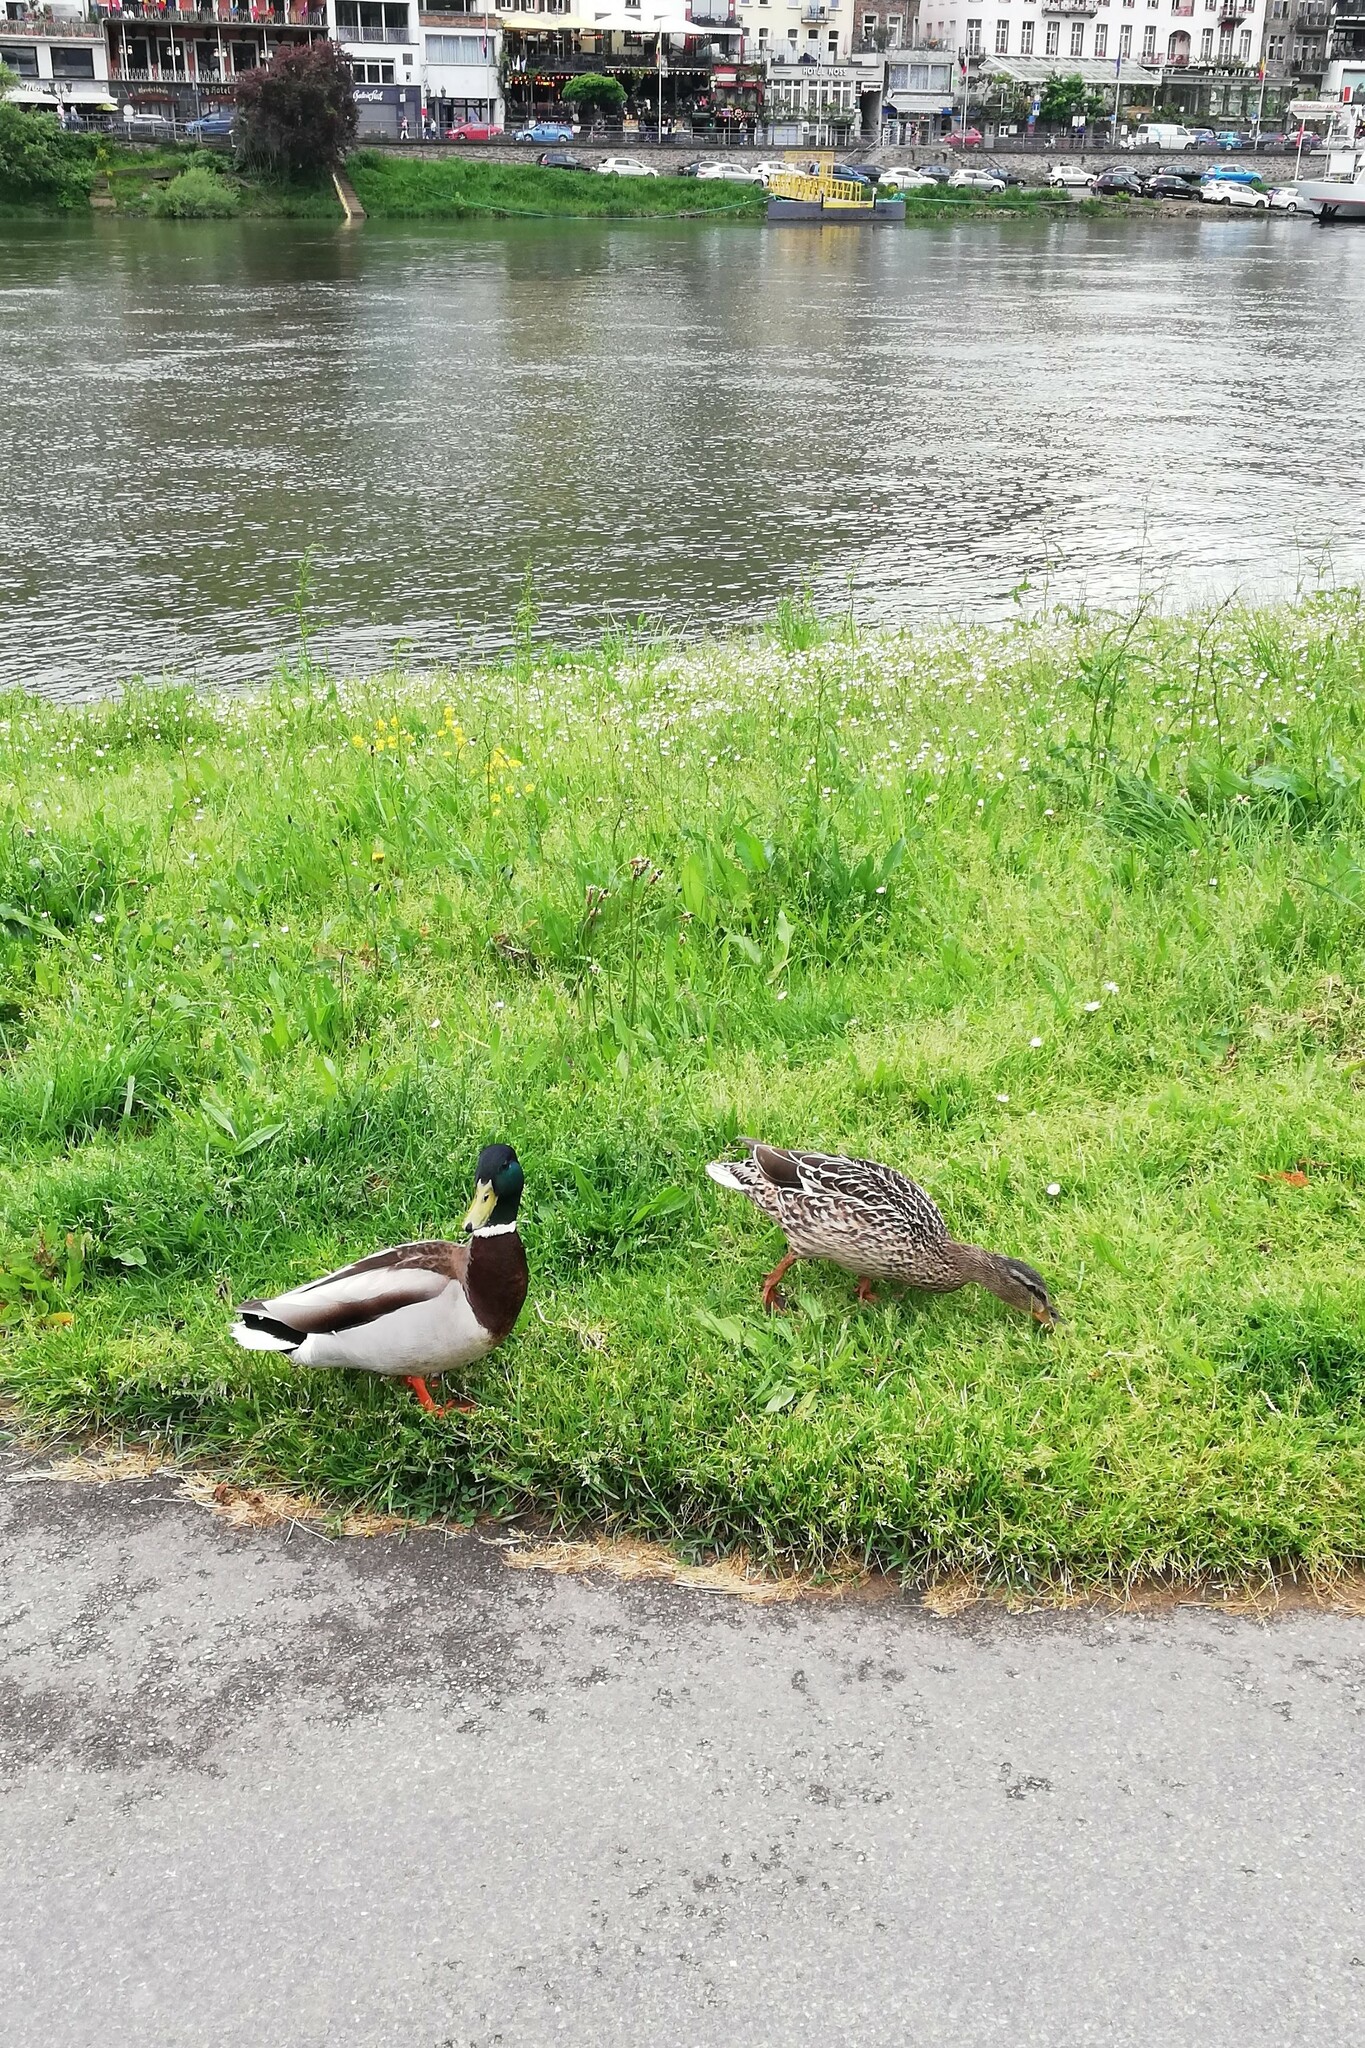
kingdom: Animalia
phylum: Chordata
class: Aves
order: Anseriformes
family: Anatidae
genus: Anas
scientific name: Anas platyrhynchos
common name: Mallard
